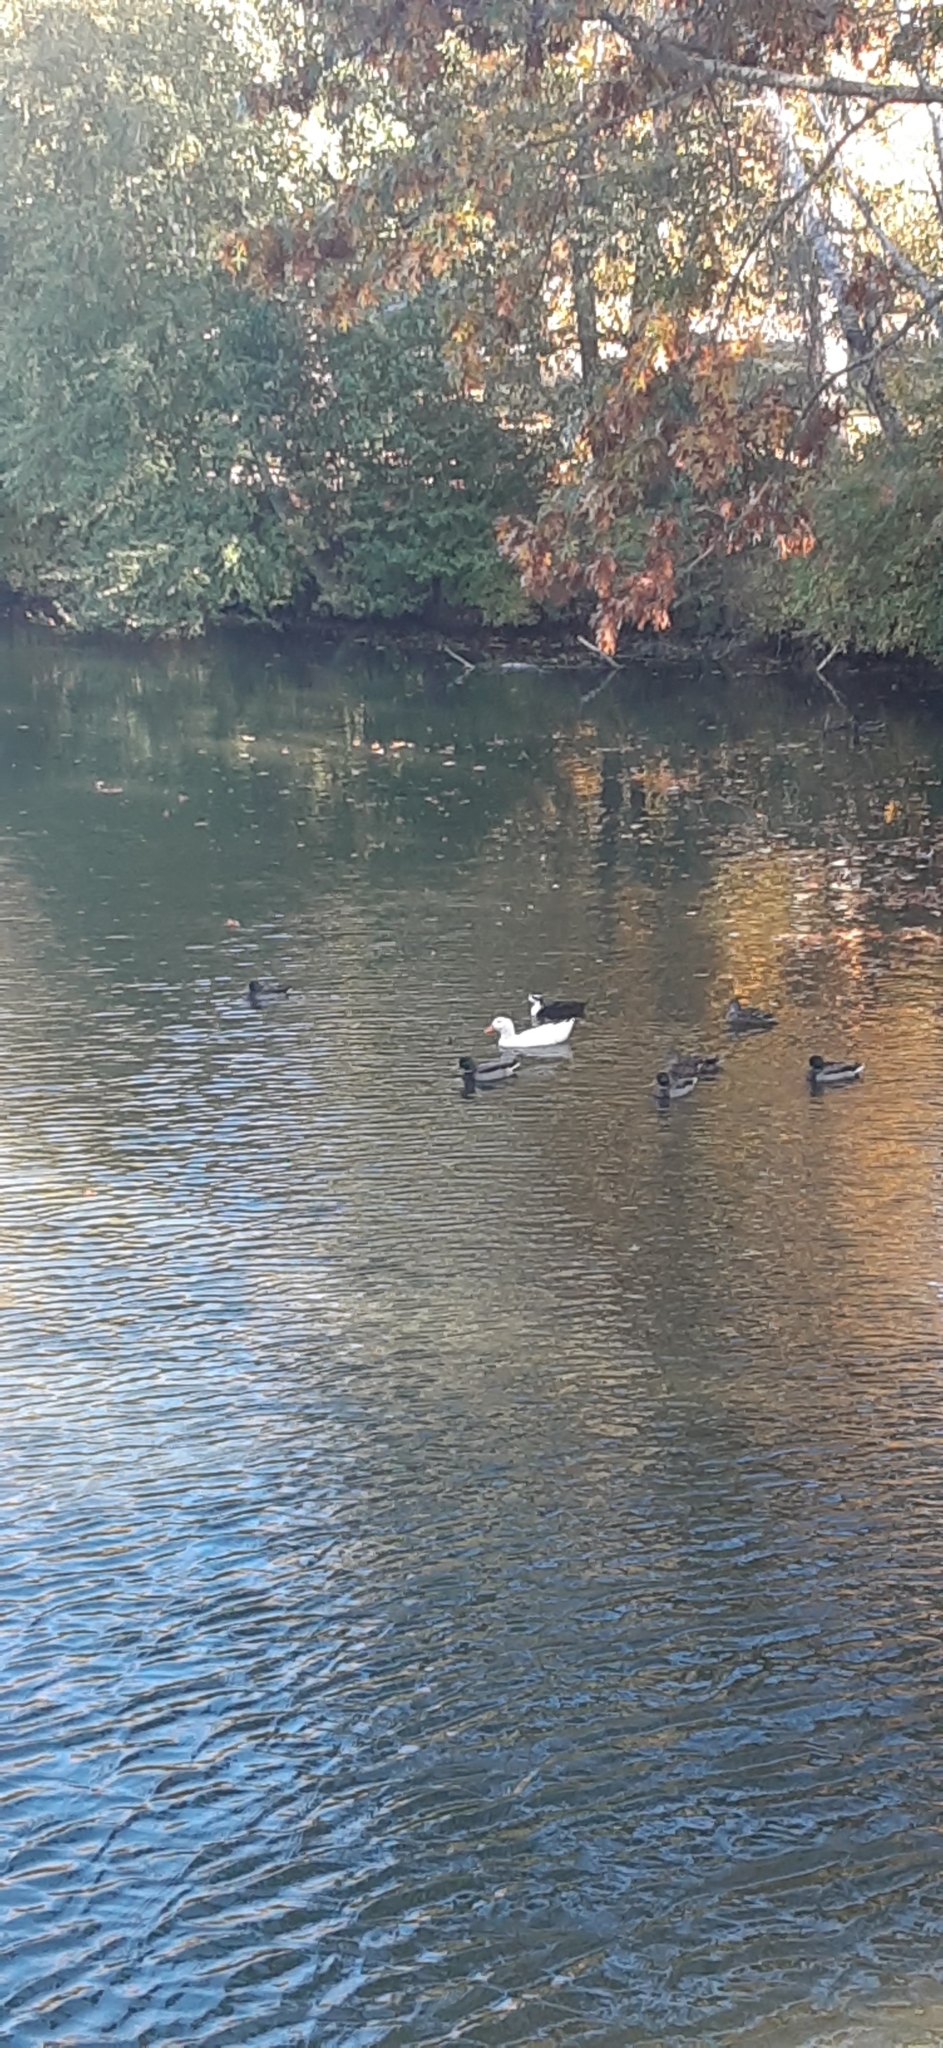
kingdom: Animalia
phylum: Chordata
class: Aves
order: Anseriformes
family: Anatidae
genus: Anas
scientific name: Anas platyrhynchos
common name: Mallard
